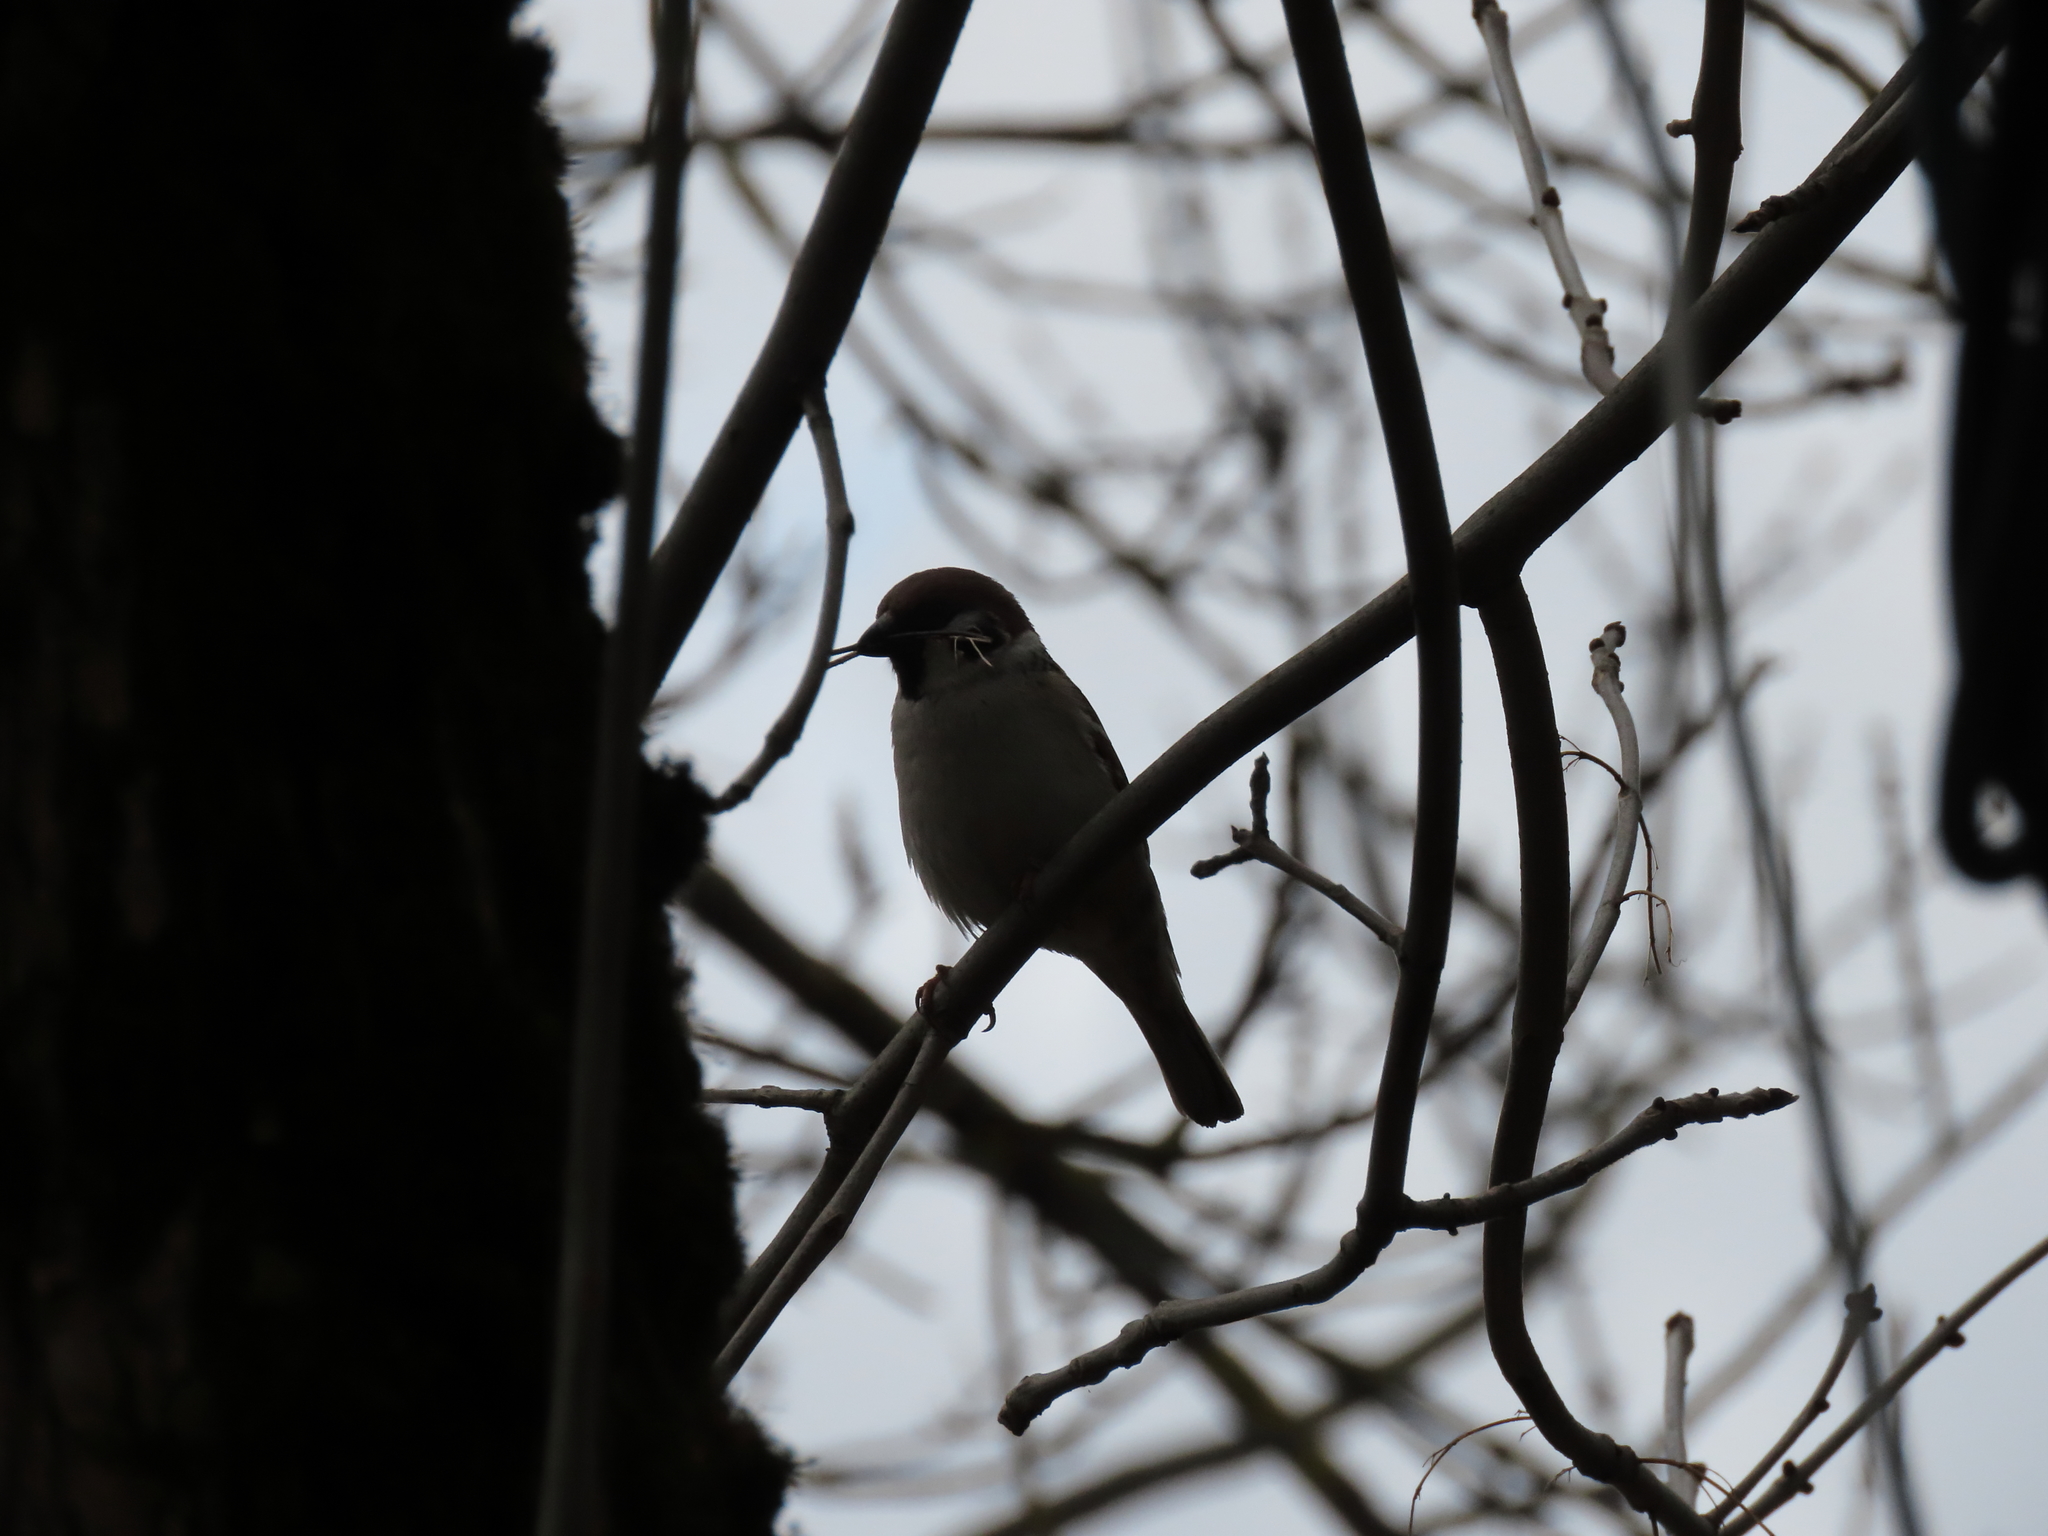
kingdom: Animalia
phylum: Chordata
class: Aves
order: Passeriformes
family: Passeridae
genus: Passer
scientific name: Passer montanus
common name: Eurasian tree sparrow
